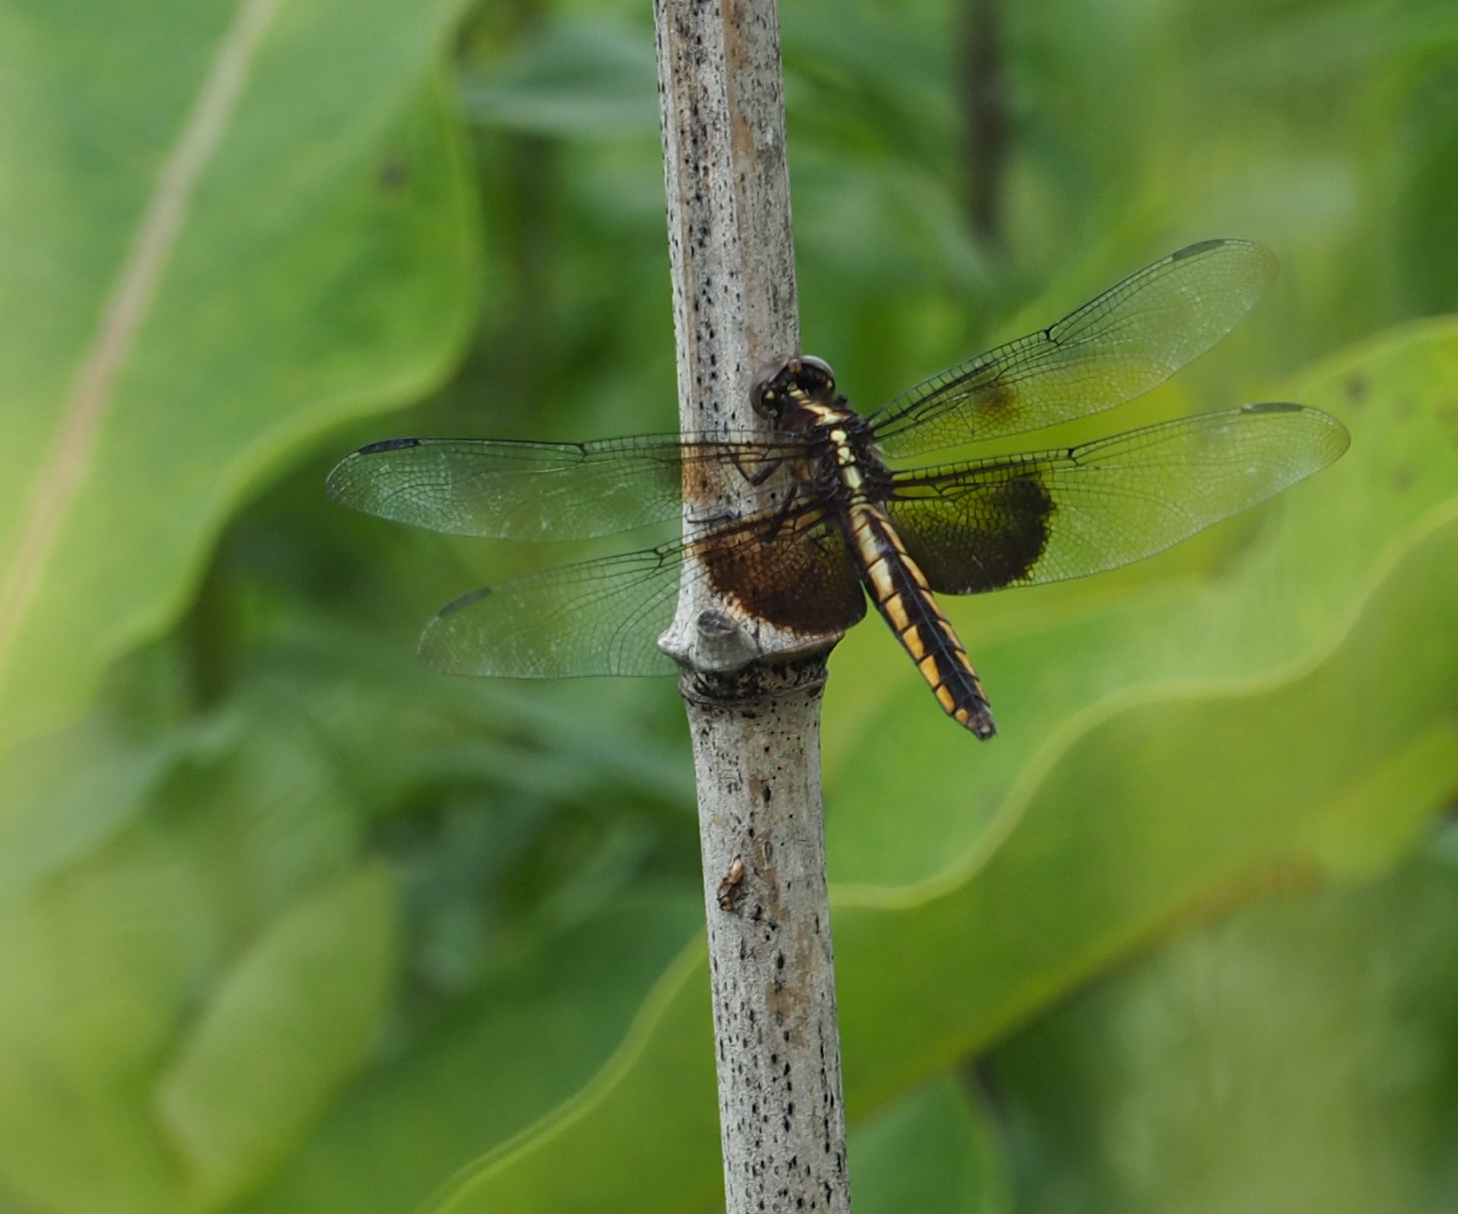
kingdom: Animalia
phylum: Arthropoda
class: Insecta
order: Odonata
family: Libellulidae
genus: Libellula
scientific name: Libellula luctuosa
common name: Widow skimmer
